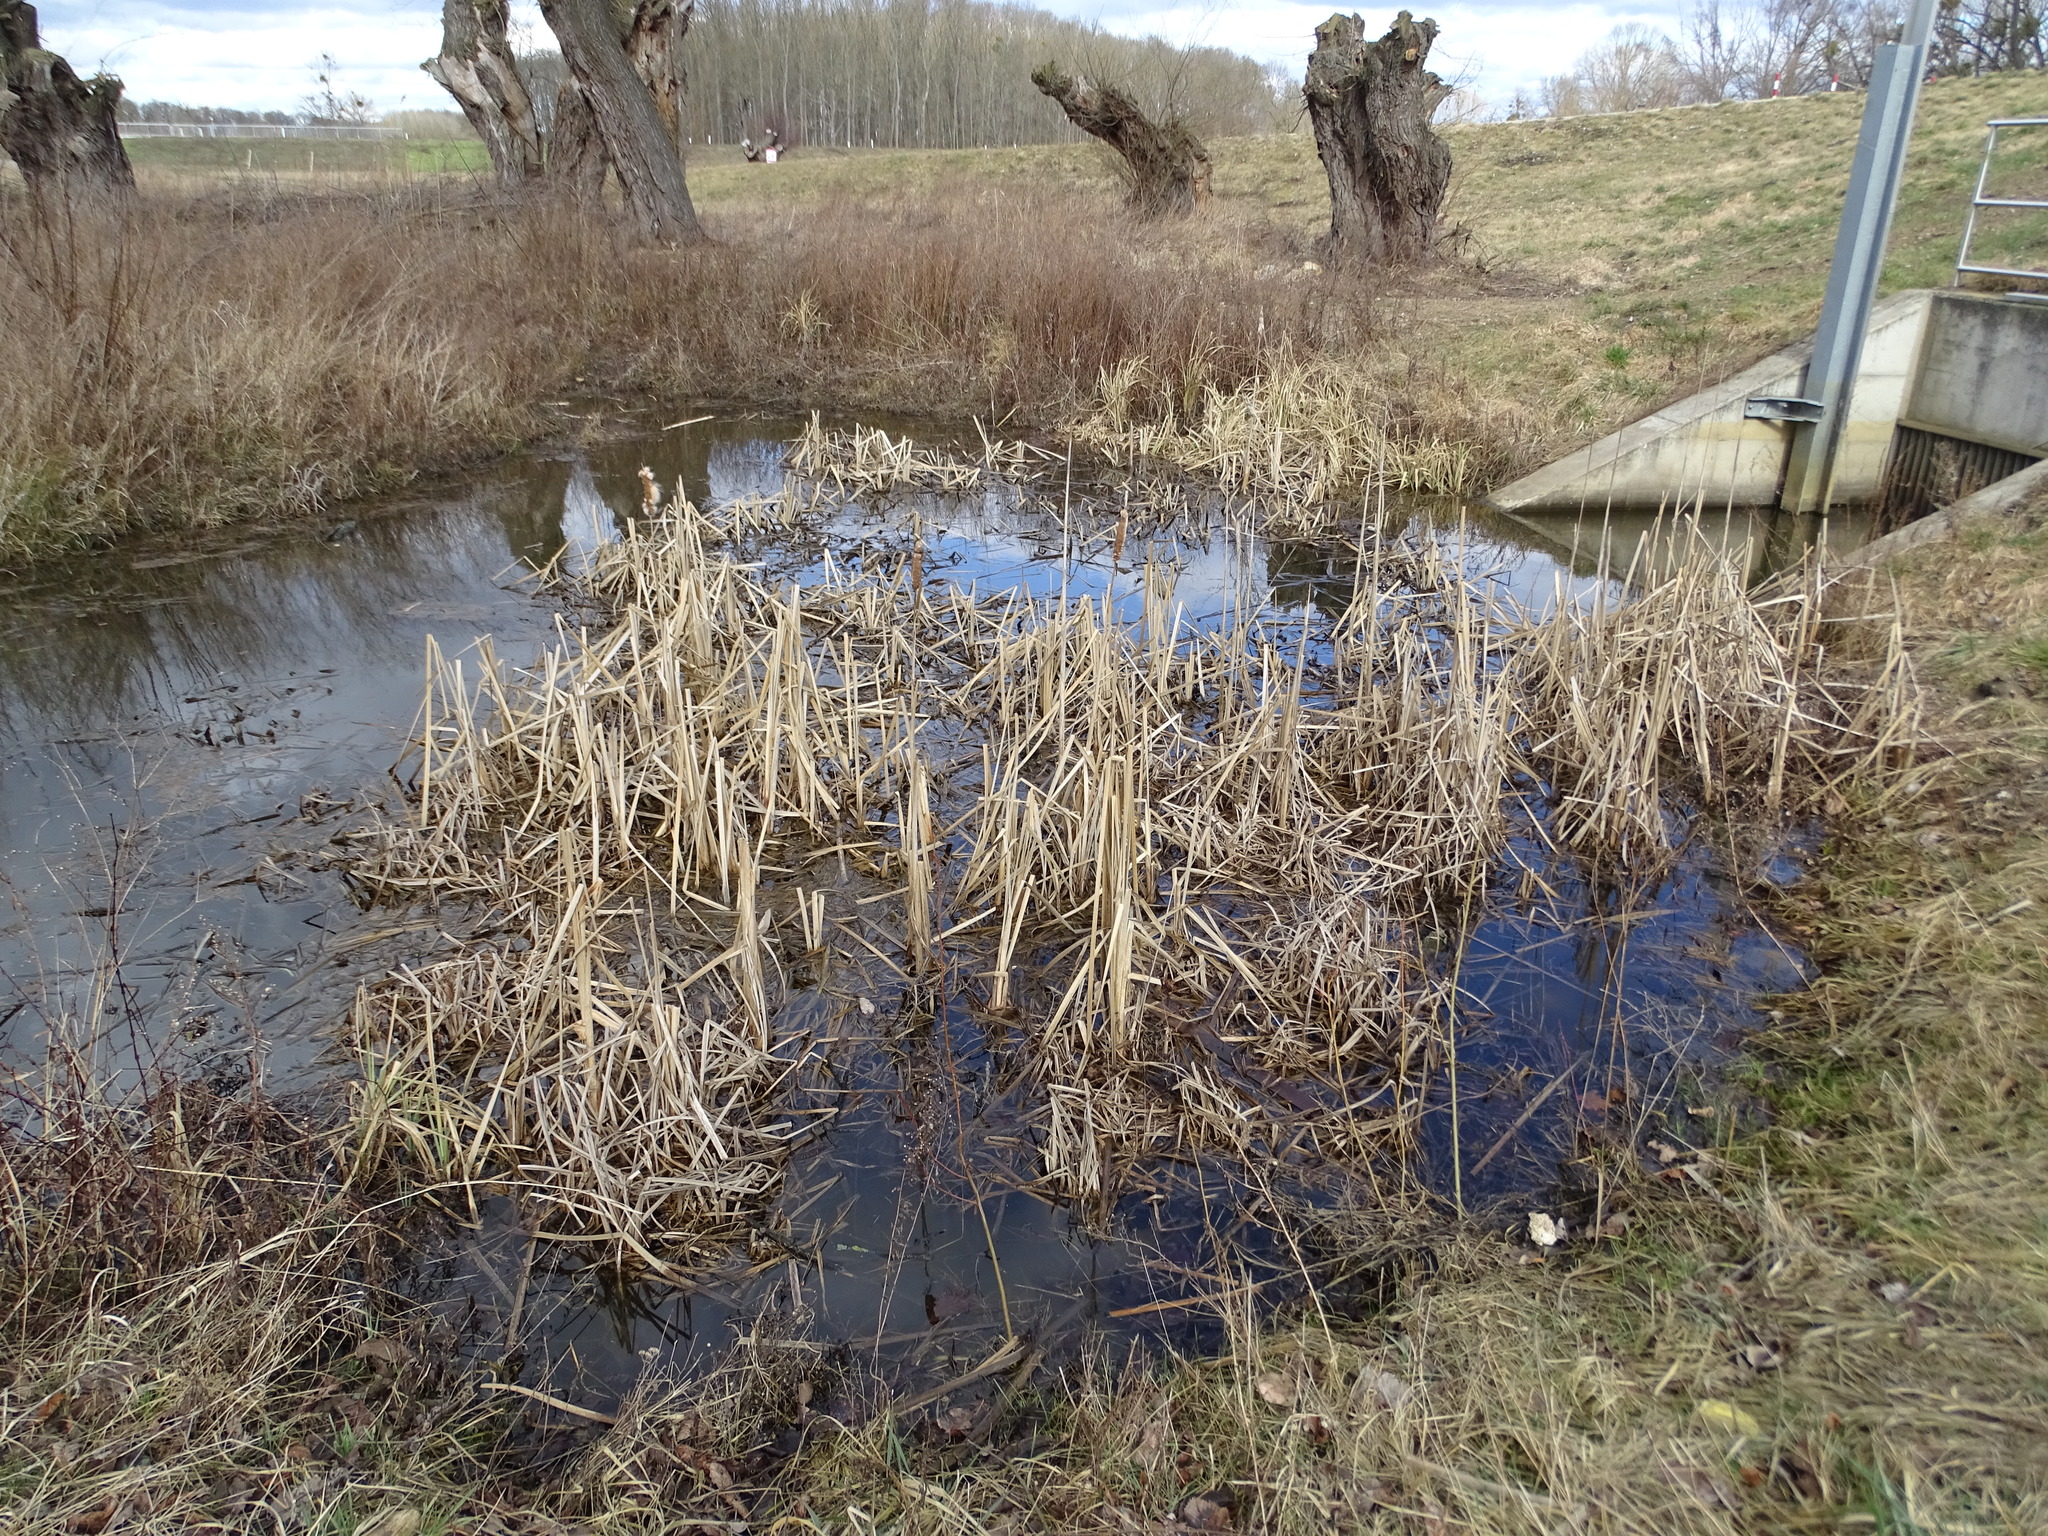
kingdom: Plantae
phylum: Tracheophyta
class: Liliopsida
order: Poales
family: Typhaceae
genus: Typha
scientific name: Typha latifolia
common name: Broadleaf cattail
